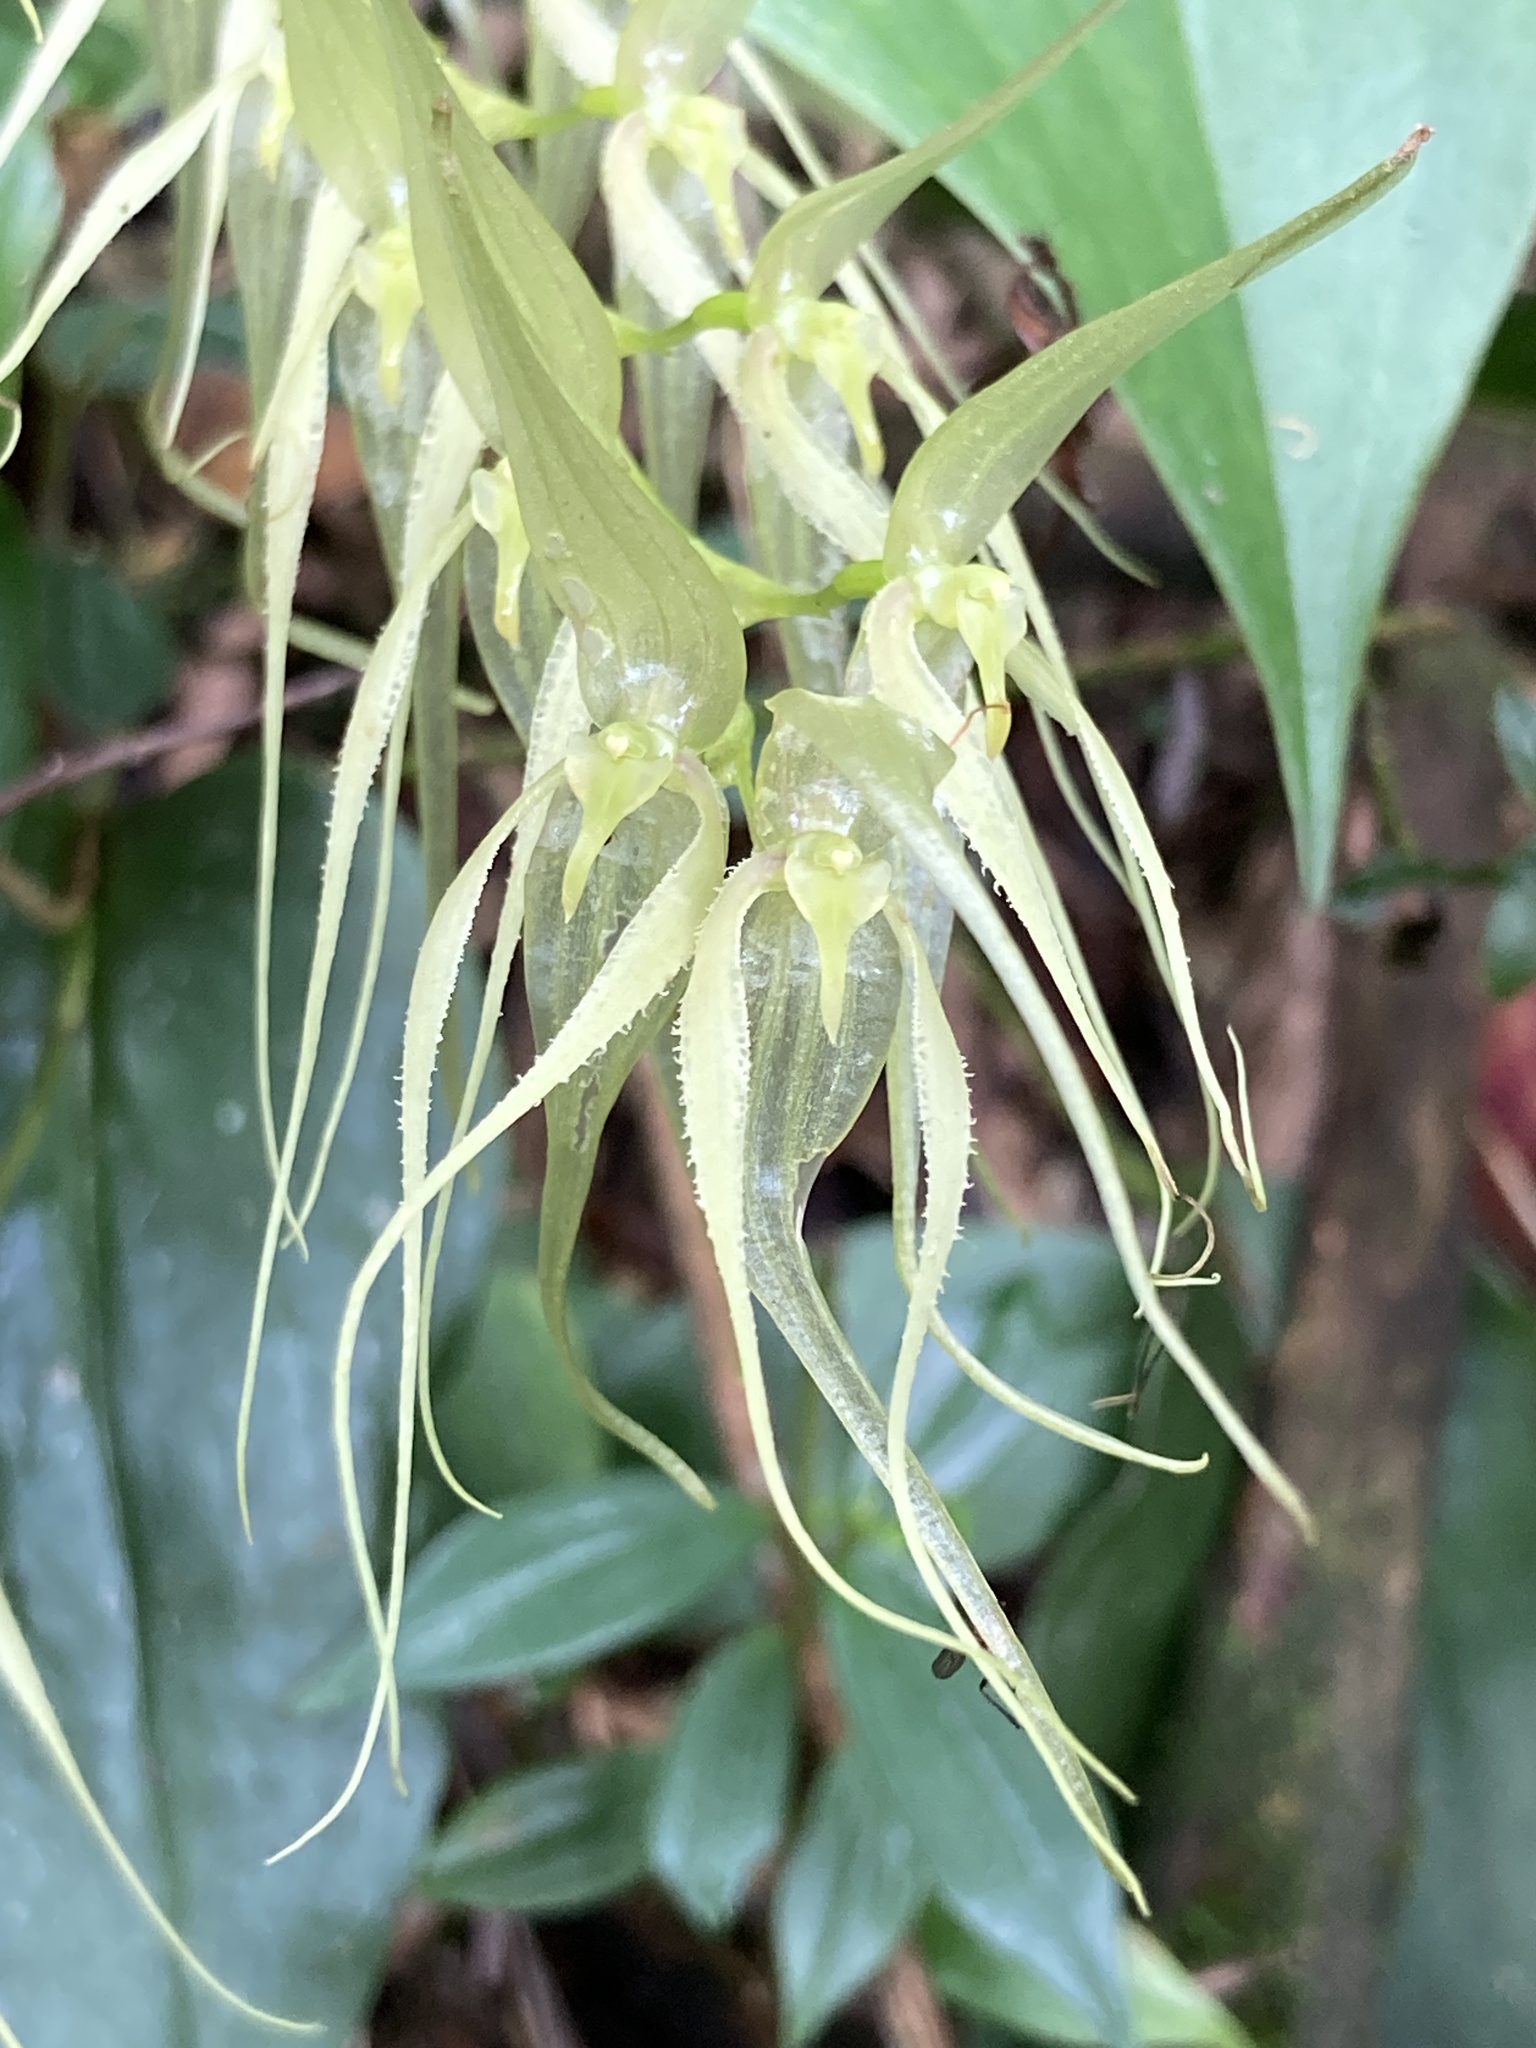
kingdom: Plantae
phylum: Tracheophyta
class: Liliopsida
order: Asparagales
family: Orchidaceae
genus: Pleurothallis
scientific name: Pleurothallis phalangifera
